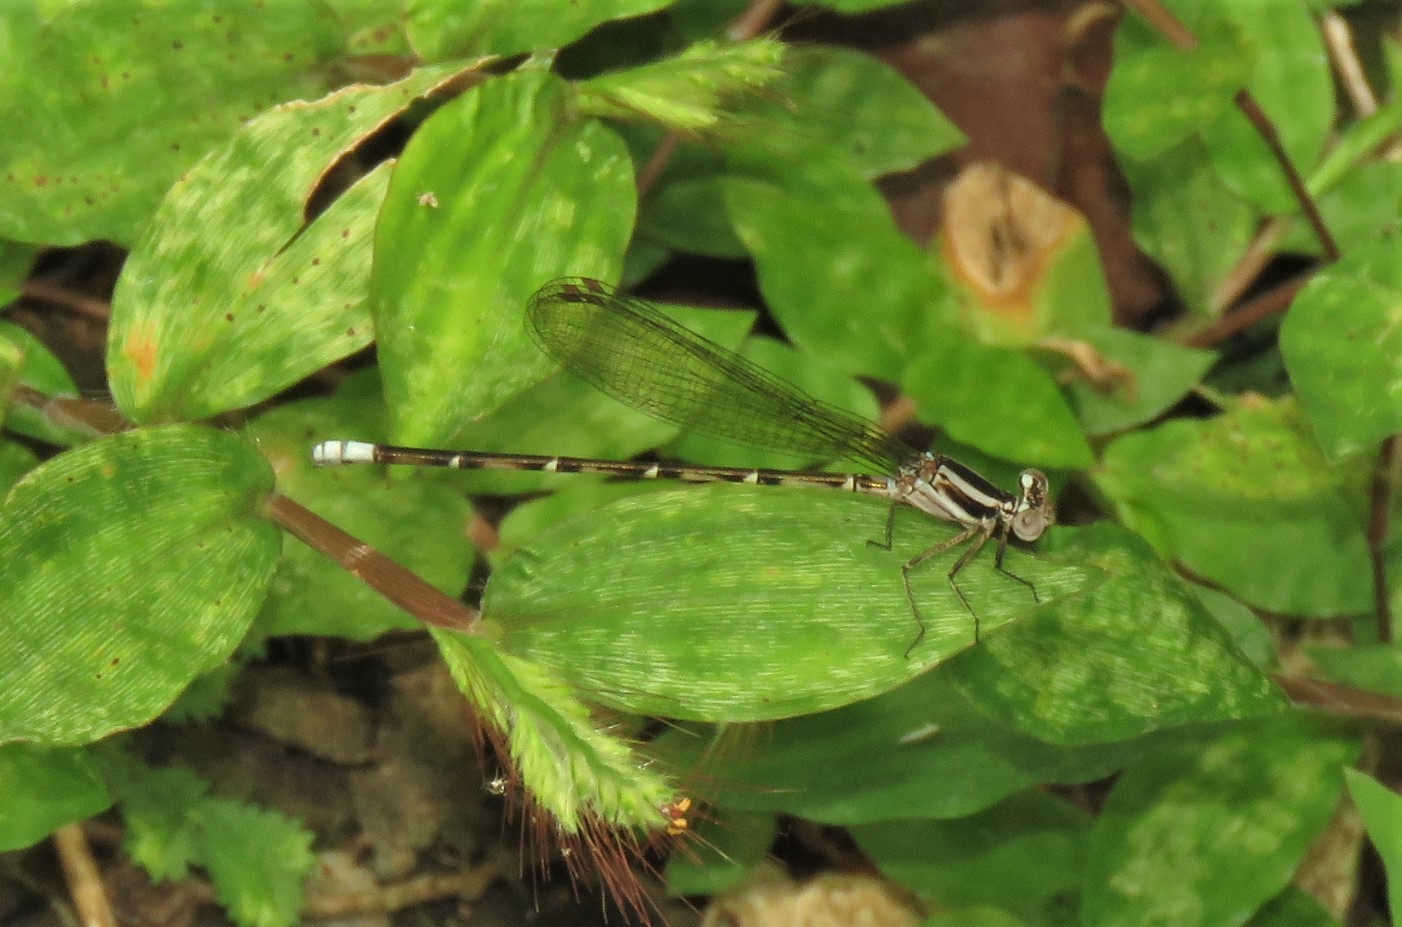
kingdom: Animalia
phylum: Arthropoda
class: Insecta
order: Odonata
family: Coenagrionidae
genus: Argia
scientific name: Argia pulla
